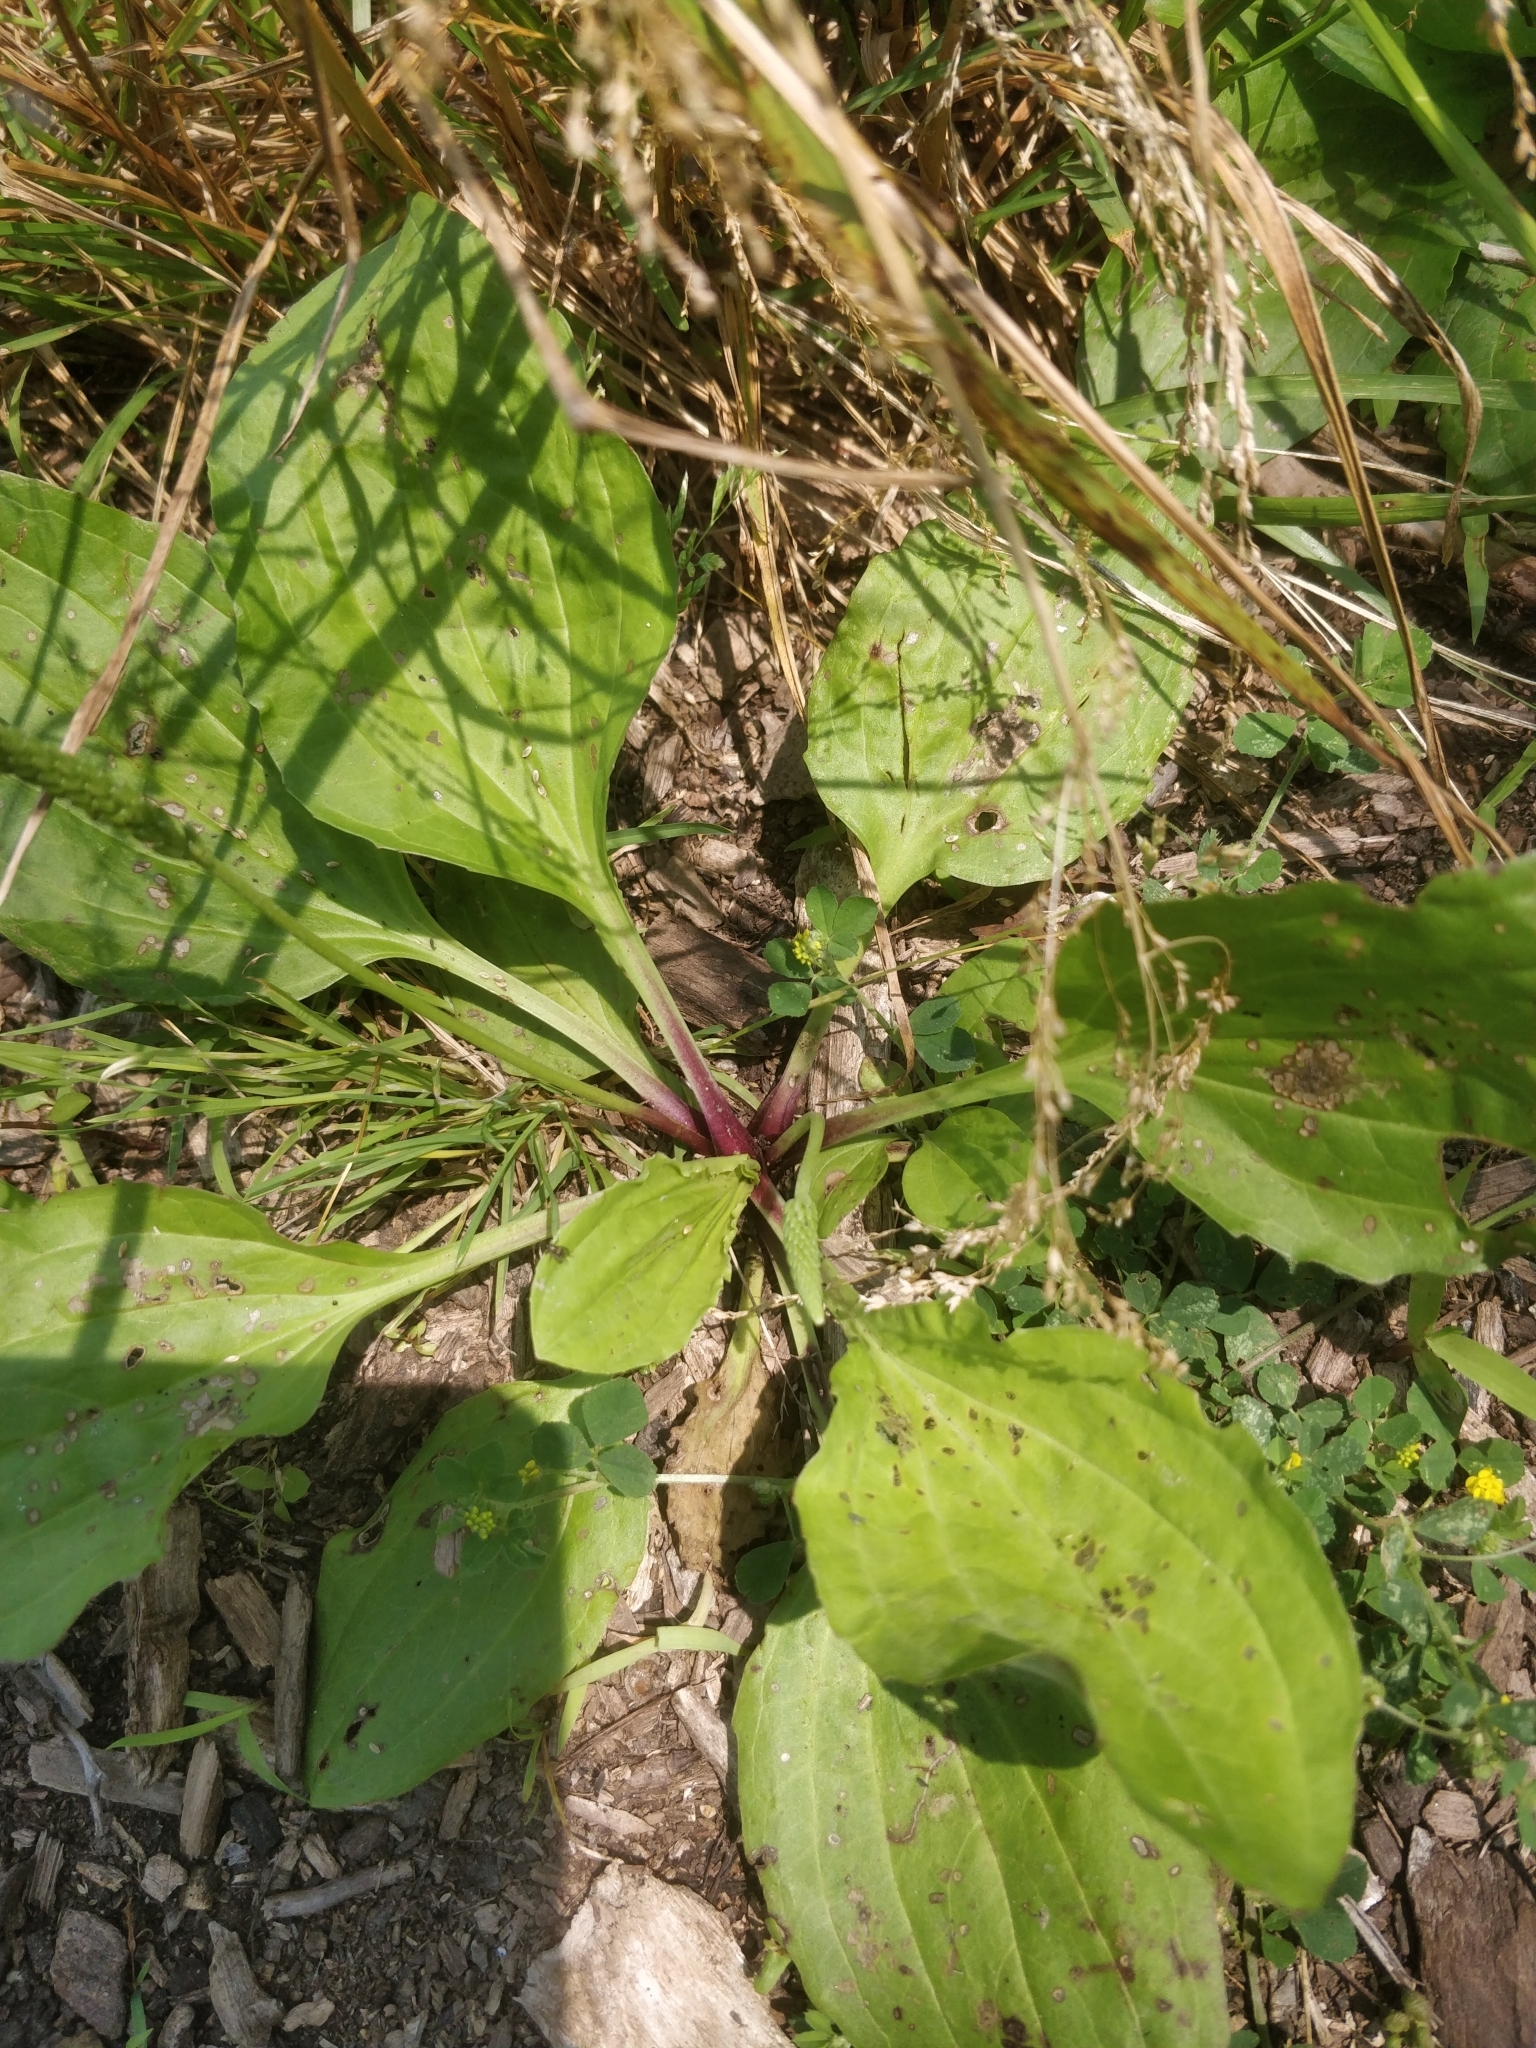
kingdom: Plantae
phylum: Tracheophyta
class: Magnoliopsida
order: Lamiales
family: Plantaginaceae
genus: Plantago
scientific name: Plantago rugelii
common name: American plantain
